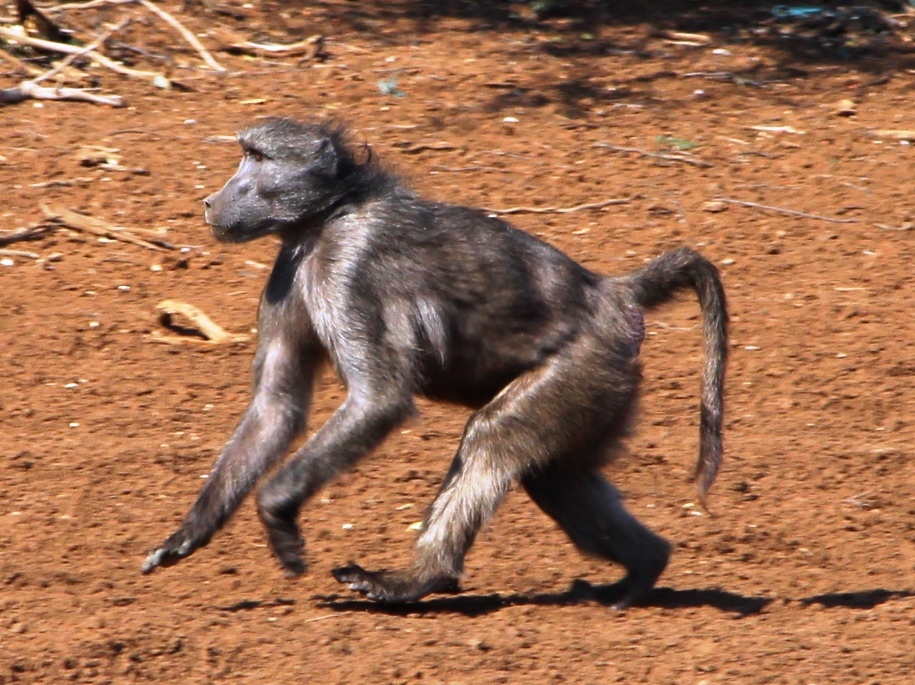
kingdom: Animalia
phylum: Chordata
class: Mammalia
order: Primates
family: Cercopithecidae
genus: Papio
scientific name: Papio ursinus
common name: Chacma baboon
